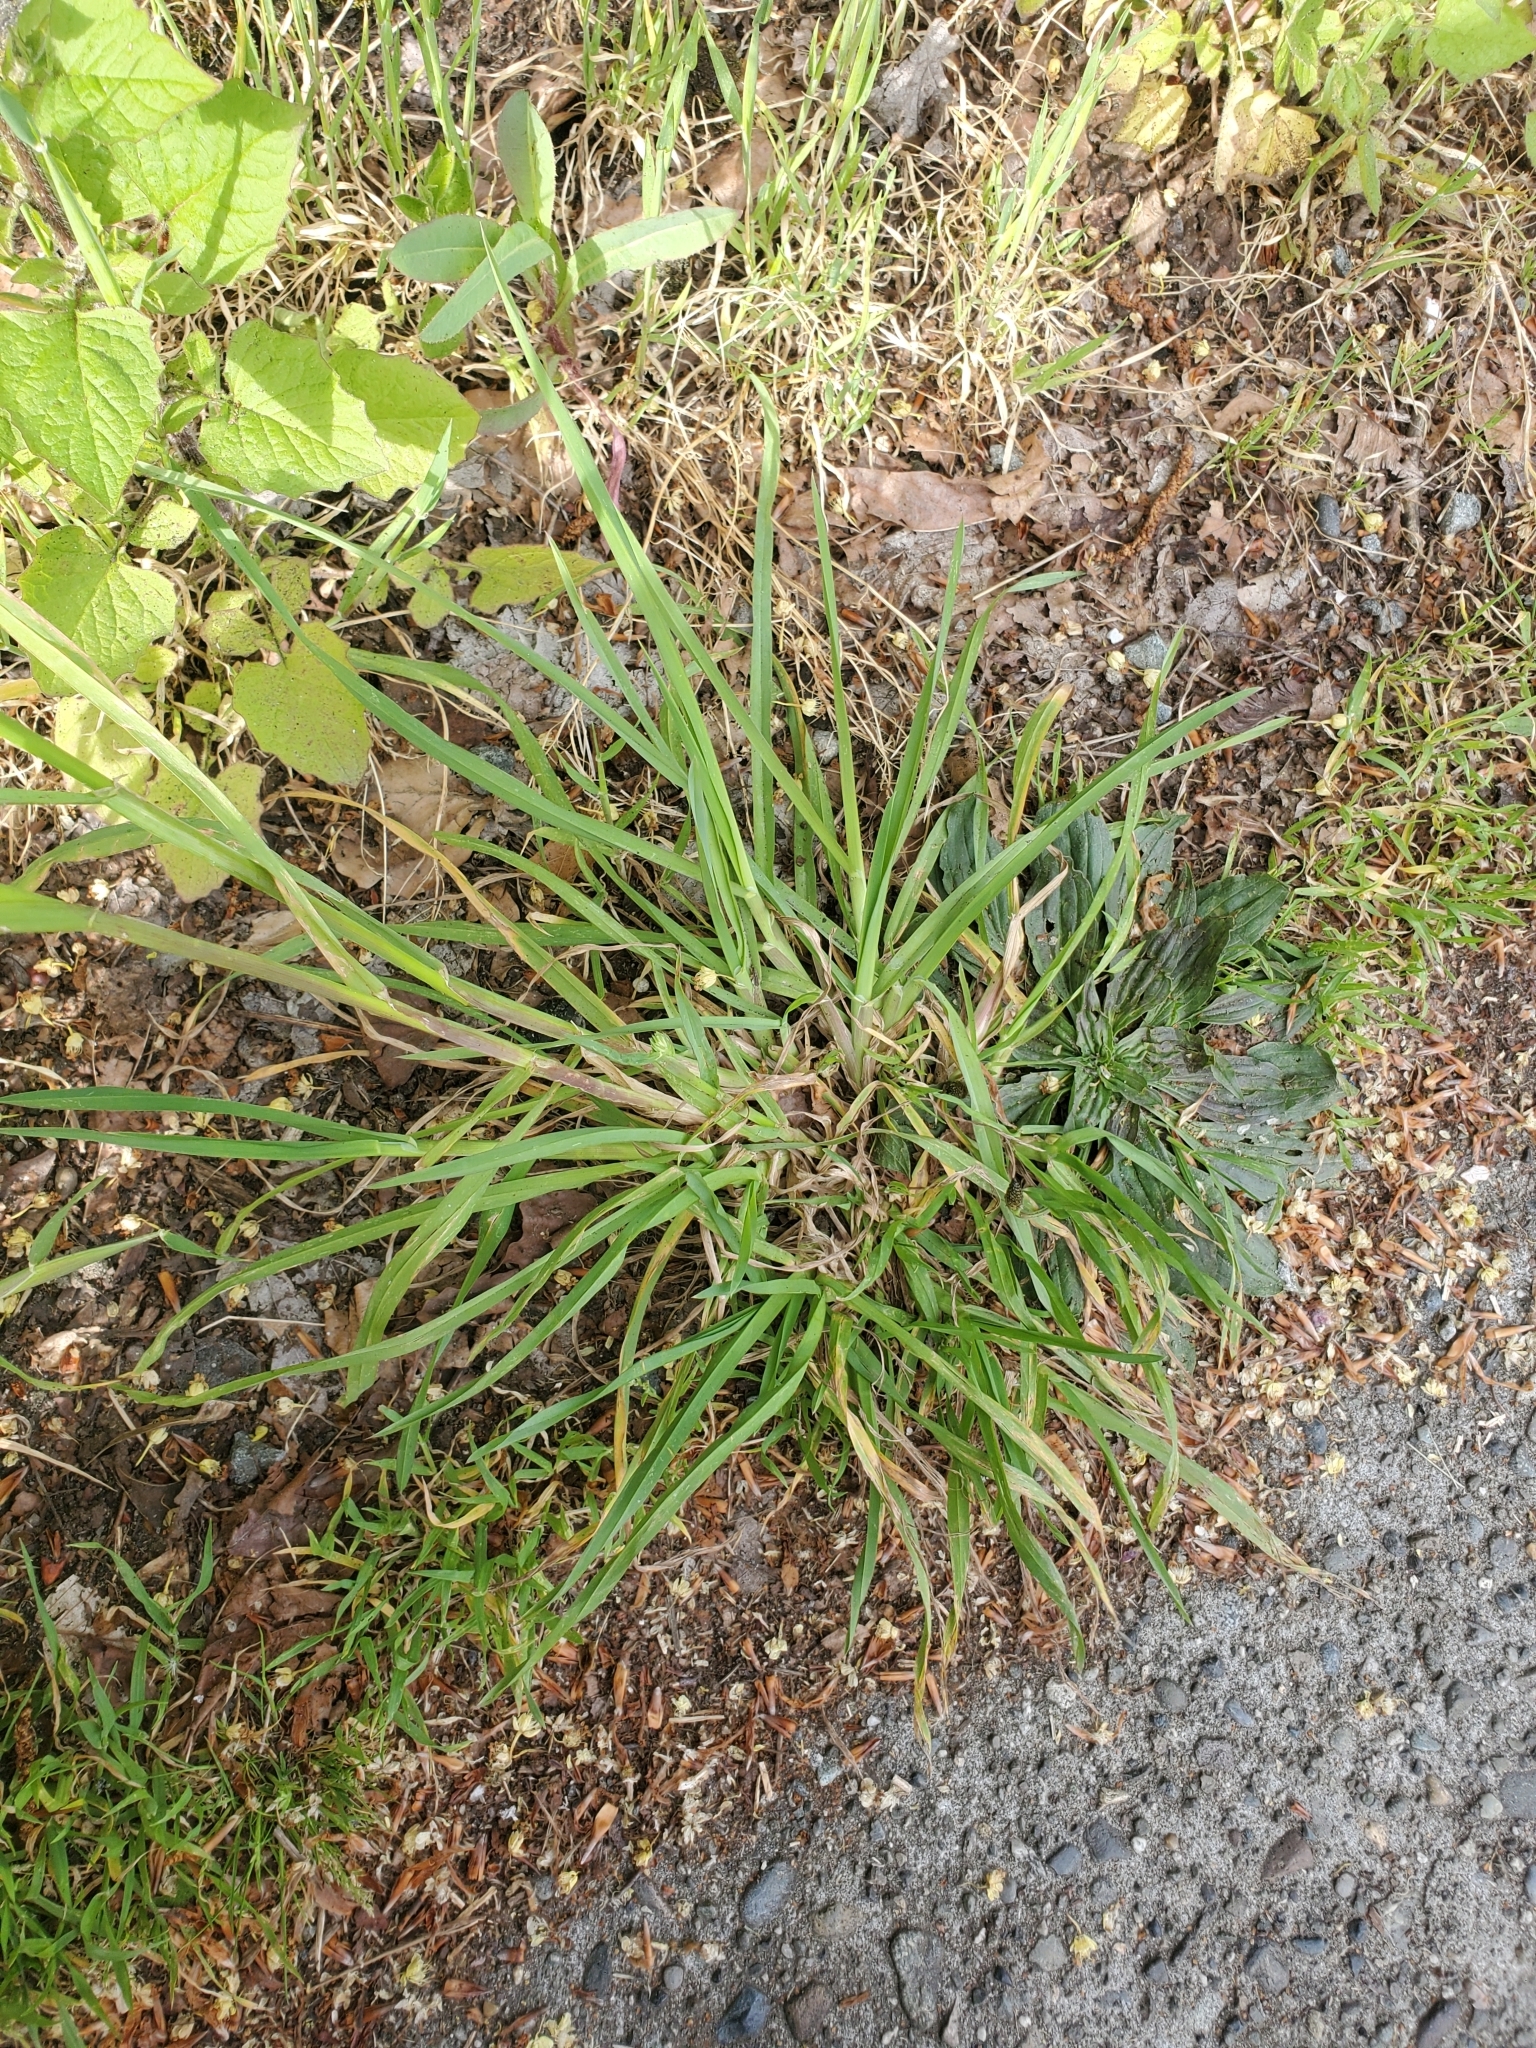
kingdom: Plantae
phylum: Tracheophyta
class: Liliopsida
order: Poales
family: Poaceae
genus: Dactylis
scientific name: Dactylis glomerata
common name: Orchardgrass
